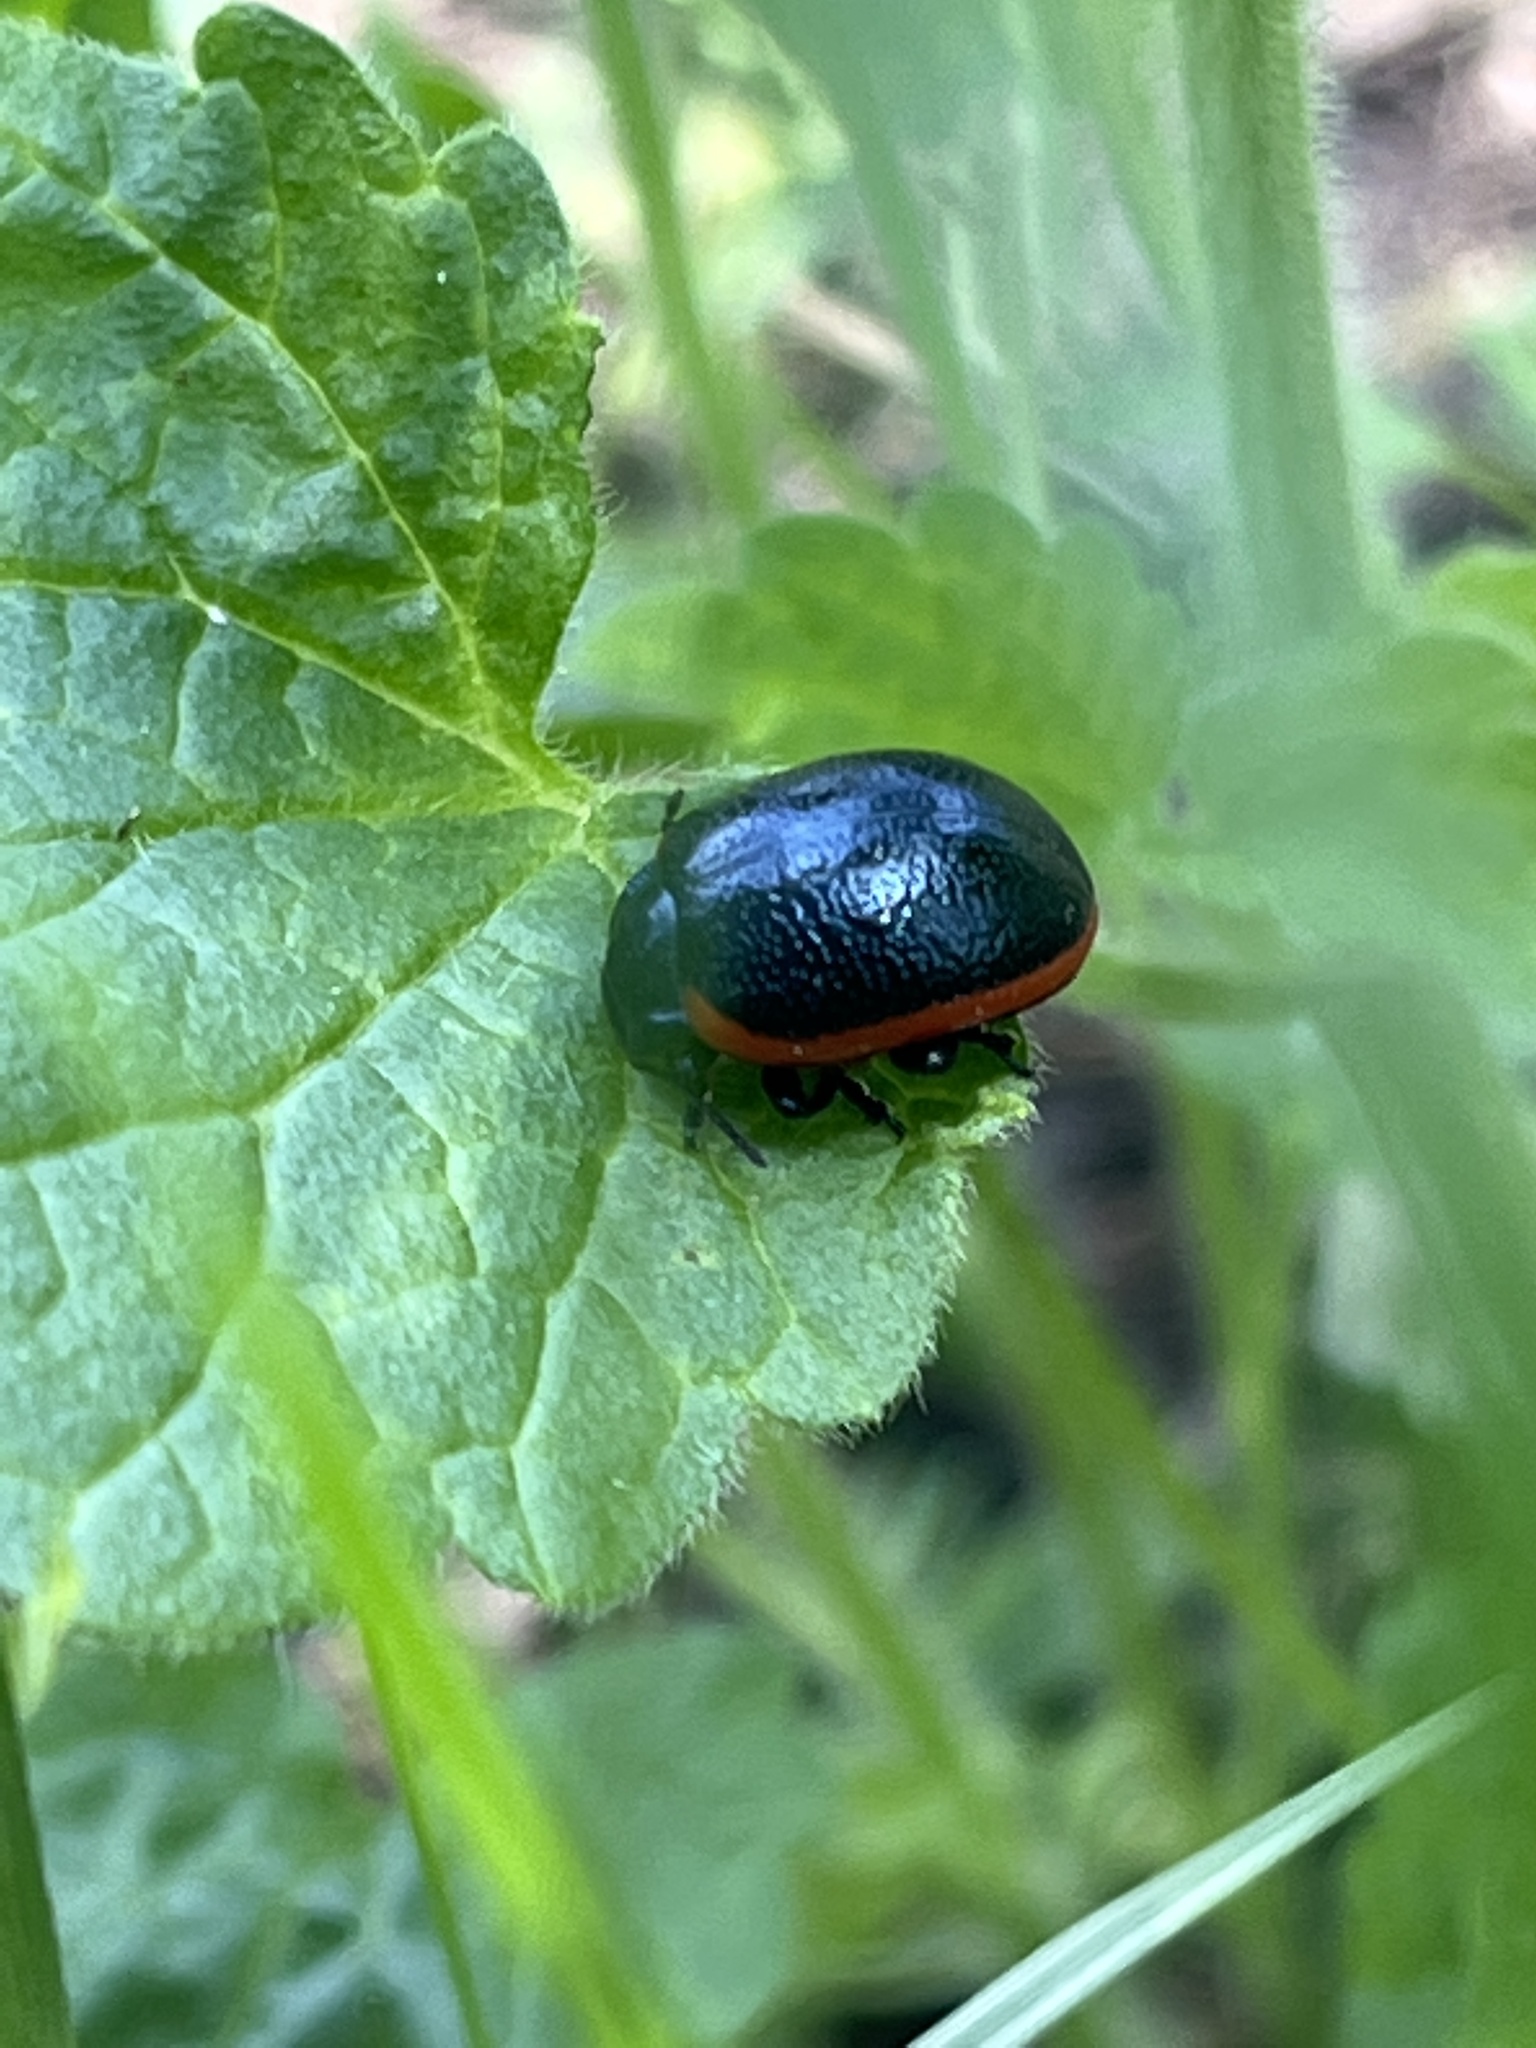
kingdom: Animalia
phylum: Arthropoda
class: Insecta
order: Coleoptera
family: Chrysomelidae
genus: Chrysolina
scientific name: Chrysolina rossia
